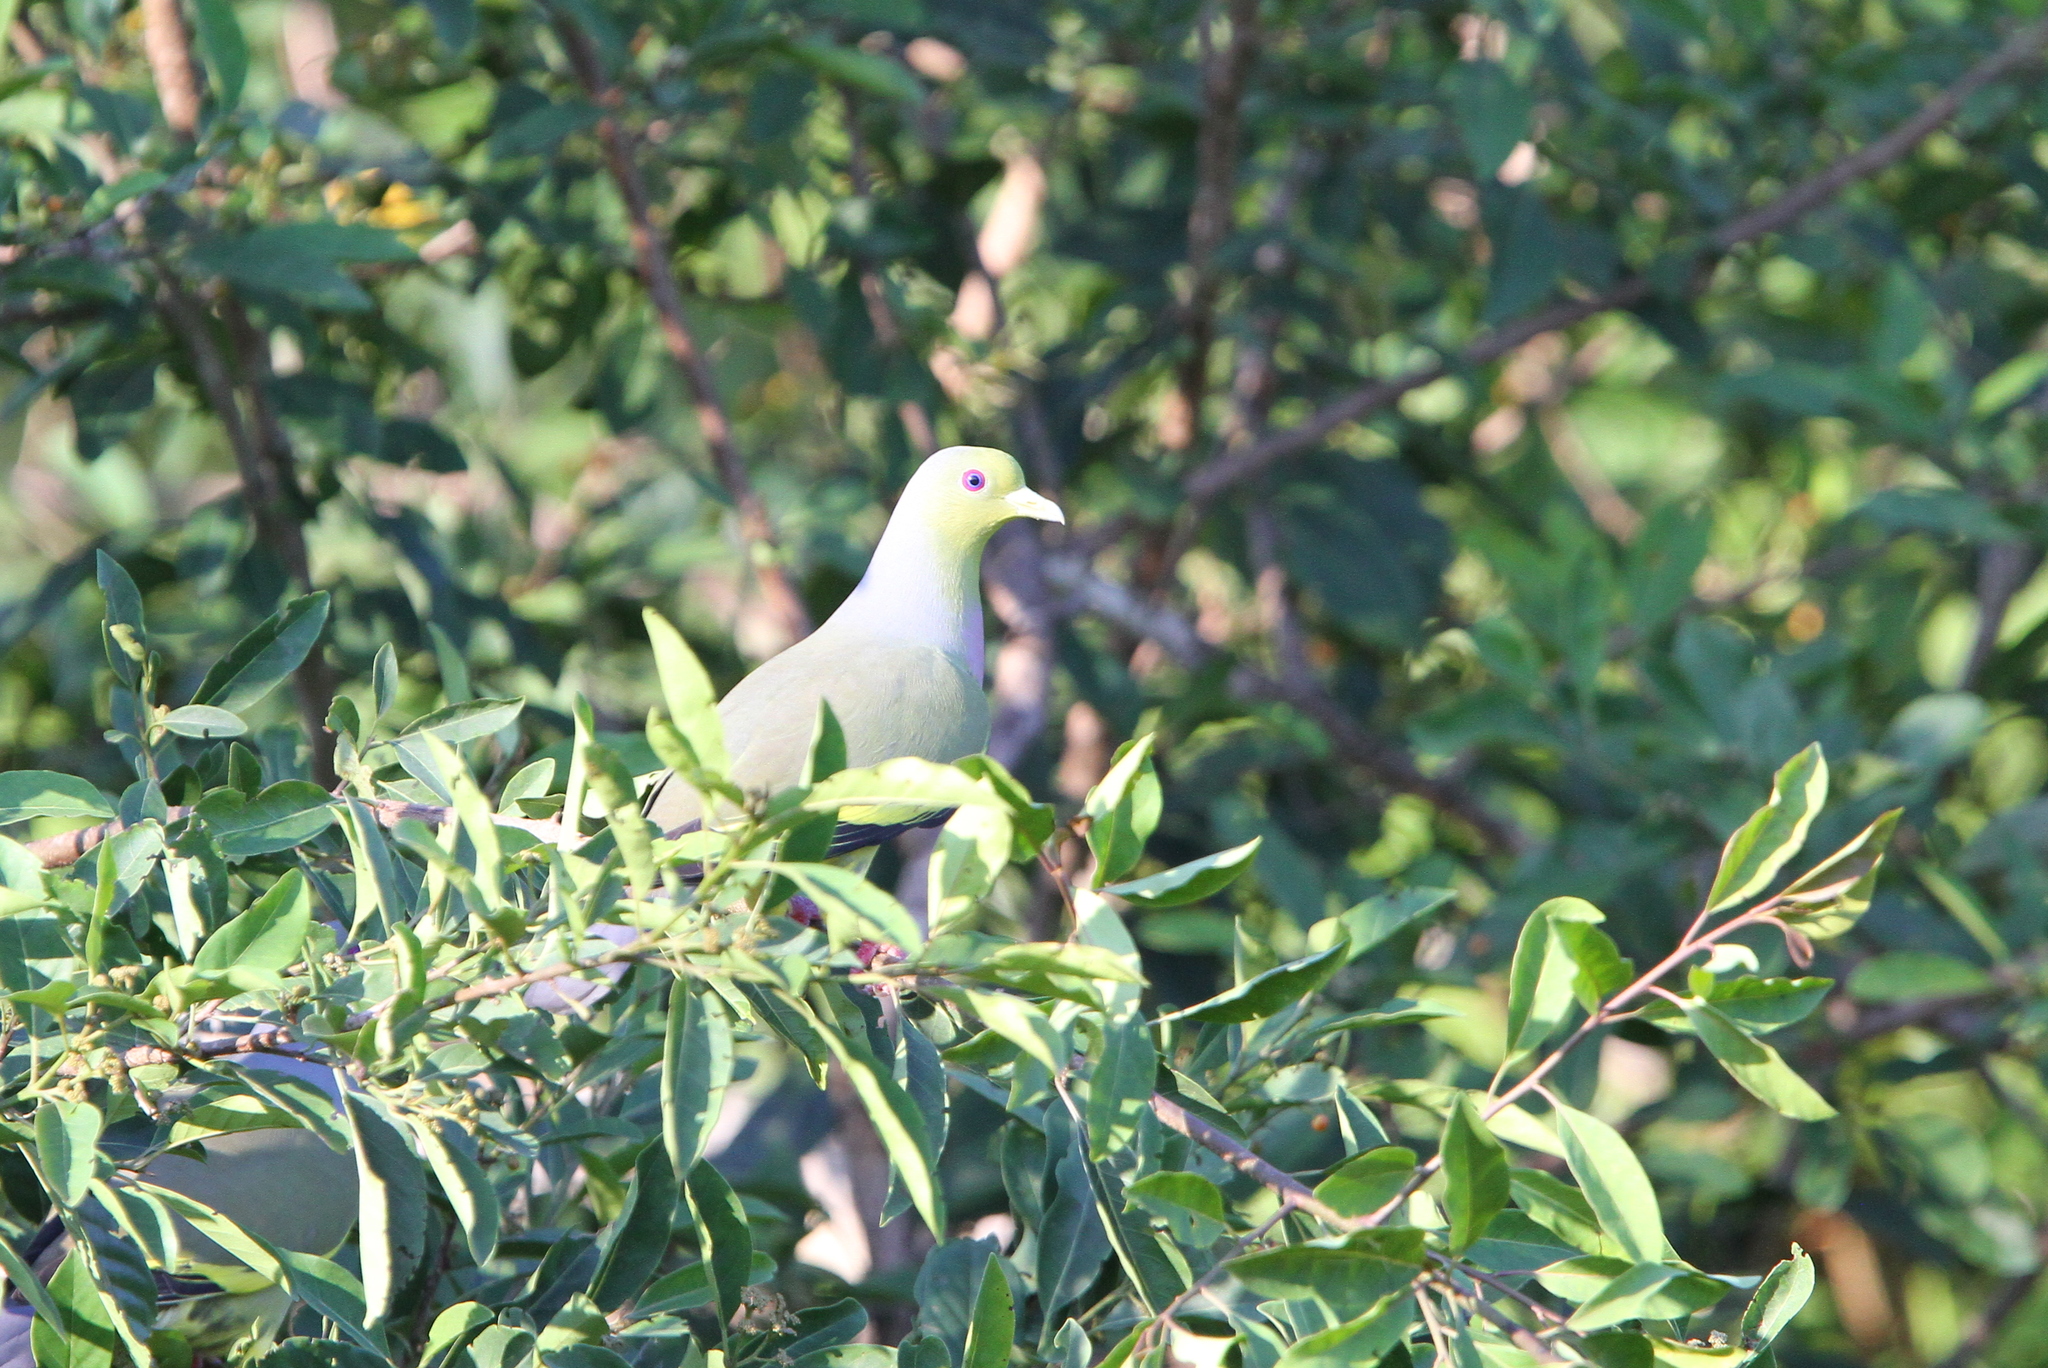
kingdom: Animalia
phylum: Chordata
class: Aves
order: Columbiformes
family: Columbidae
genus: Treron
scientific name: Treron bicinctus
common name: Orange-breasted green pigeon
